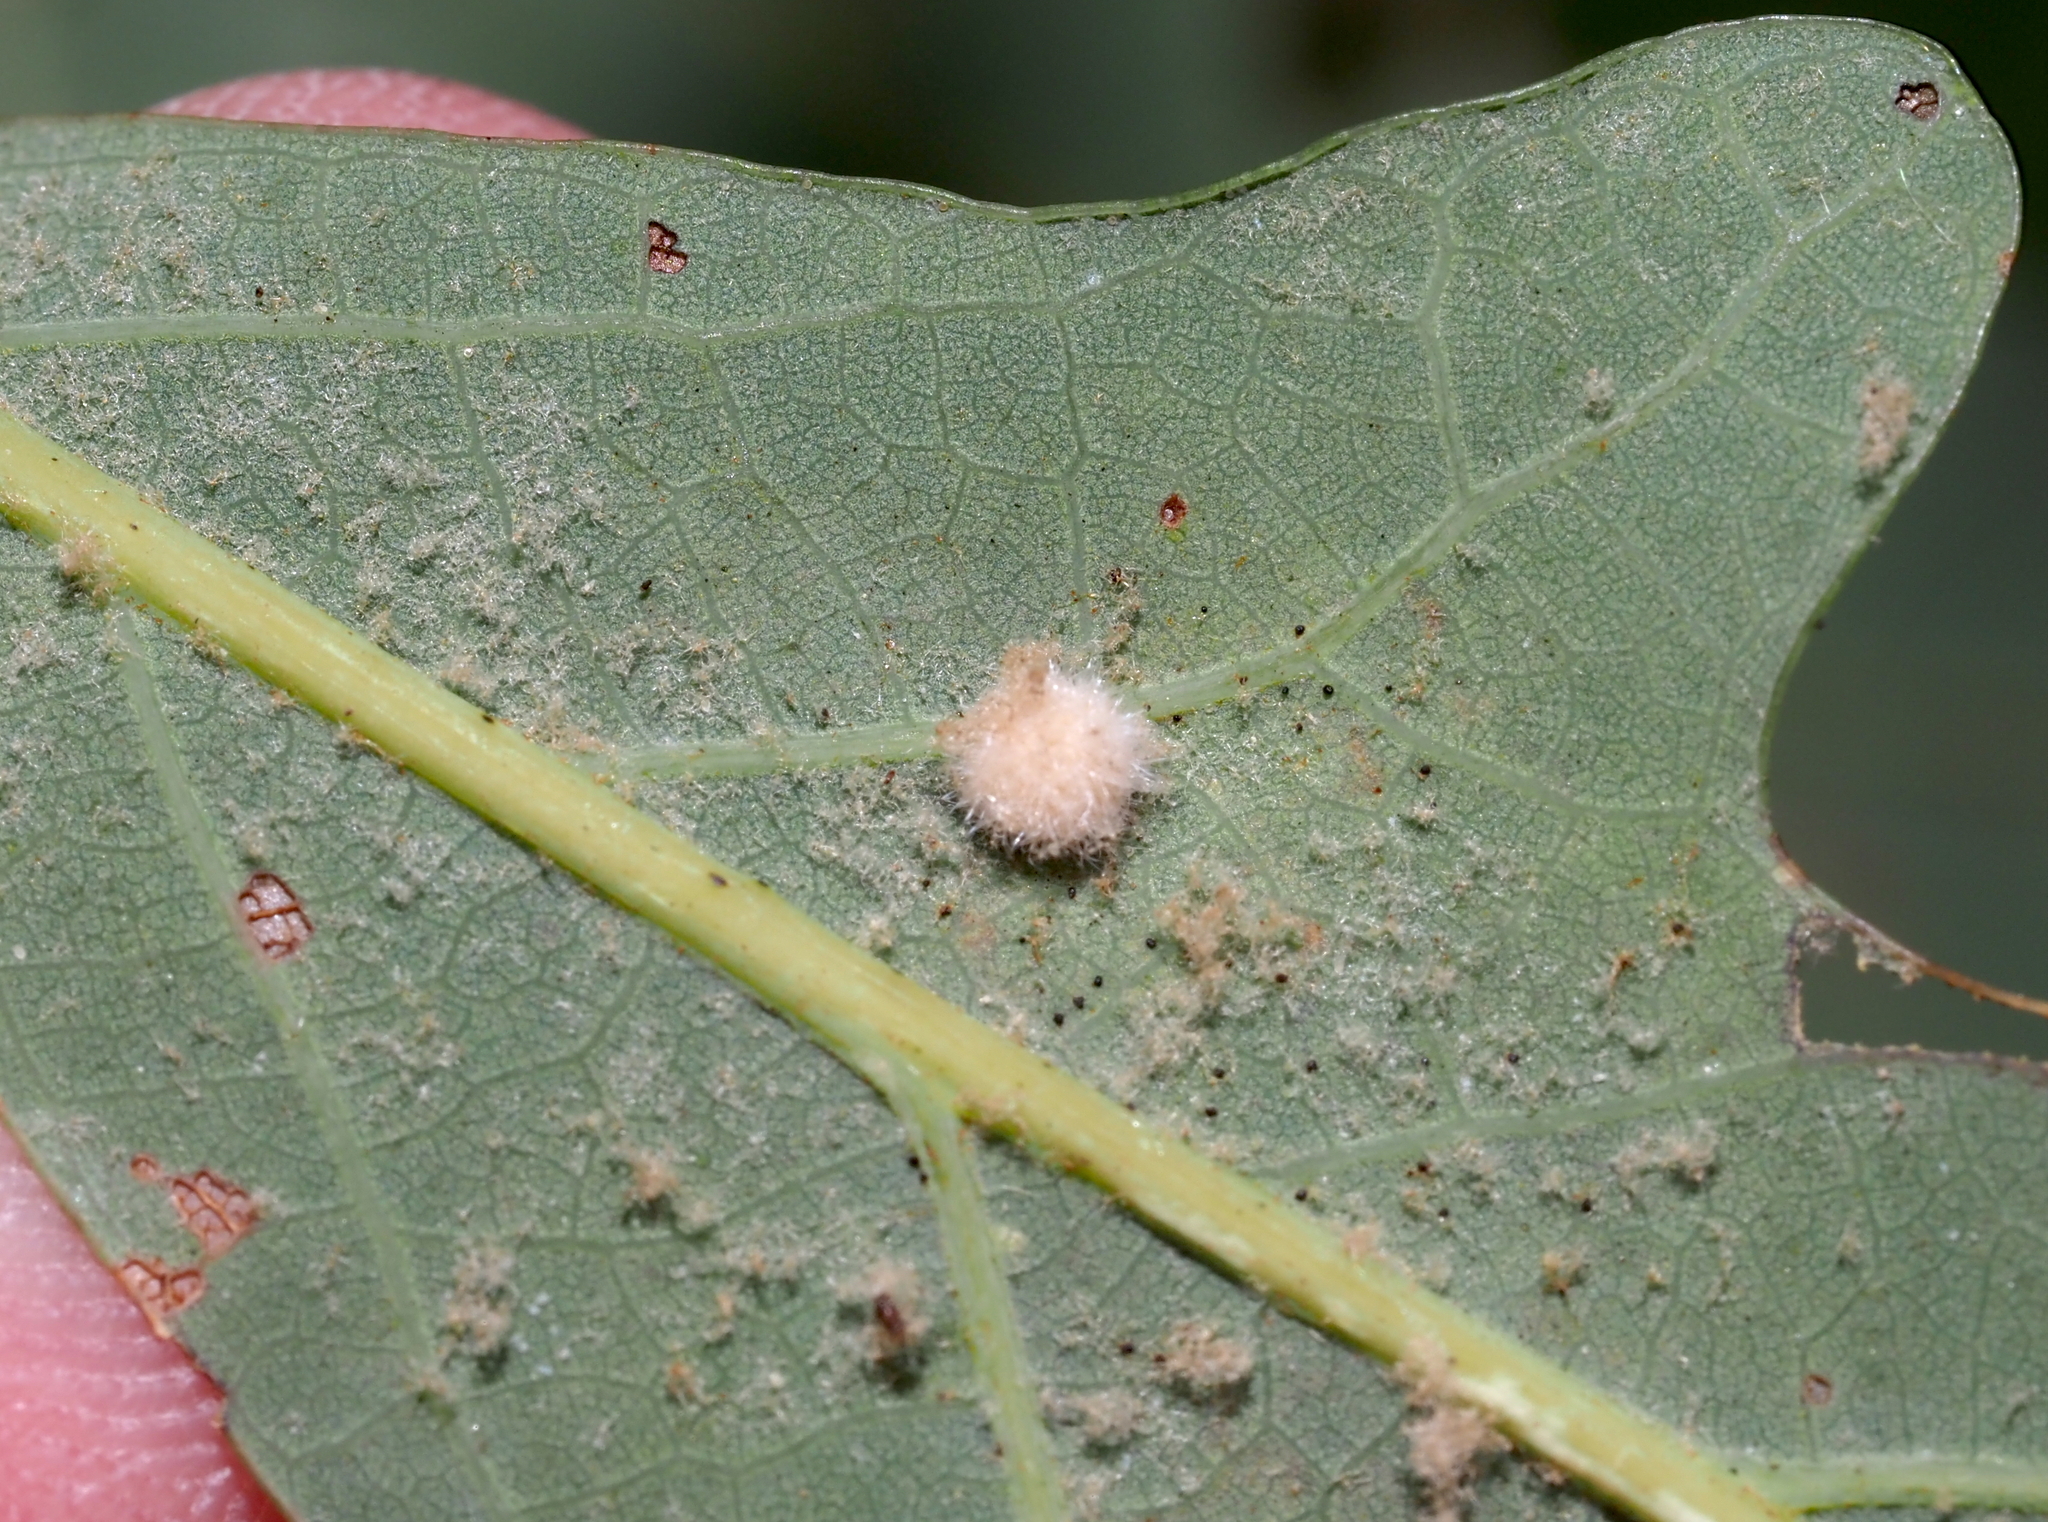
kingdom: Animalia
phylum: Arthropoda
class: Insecta
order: Hymenoptera
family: Cynipidae
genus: Philonix
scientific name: Philonix fulvicollis
